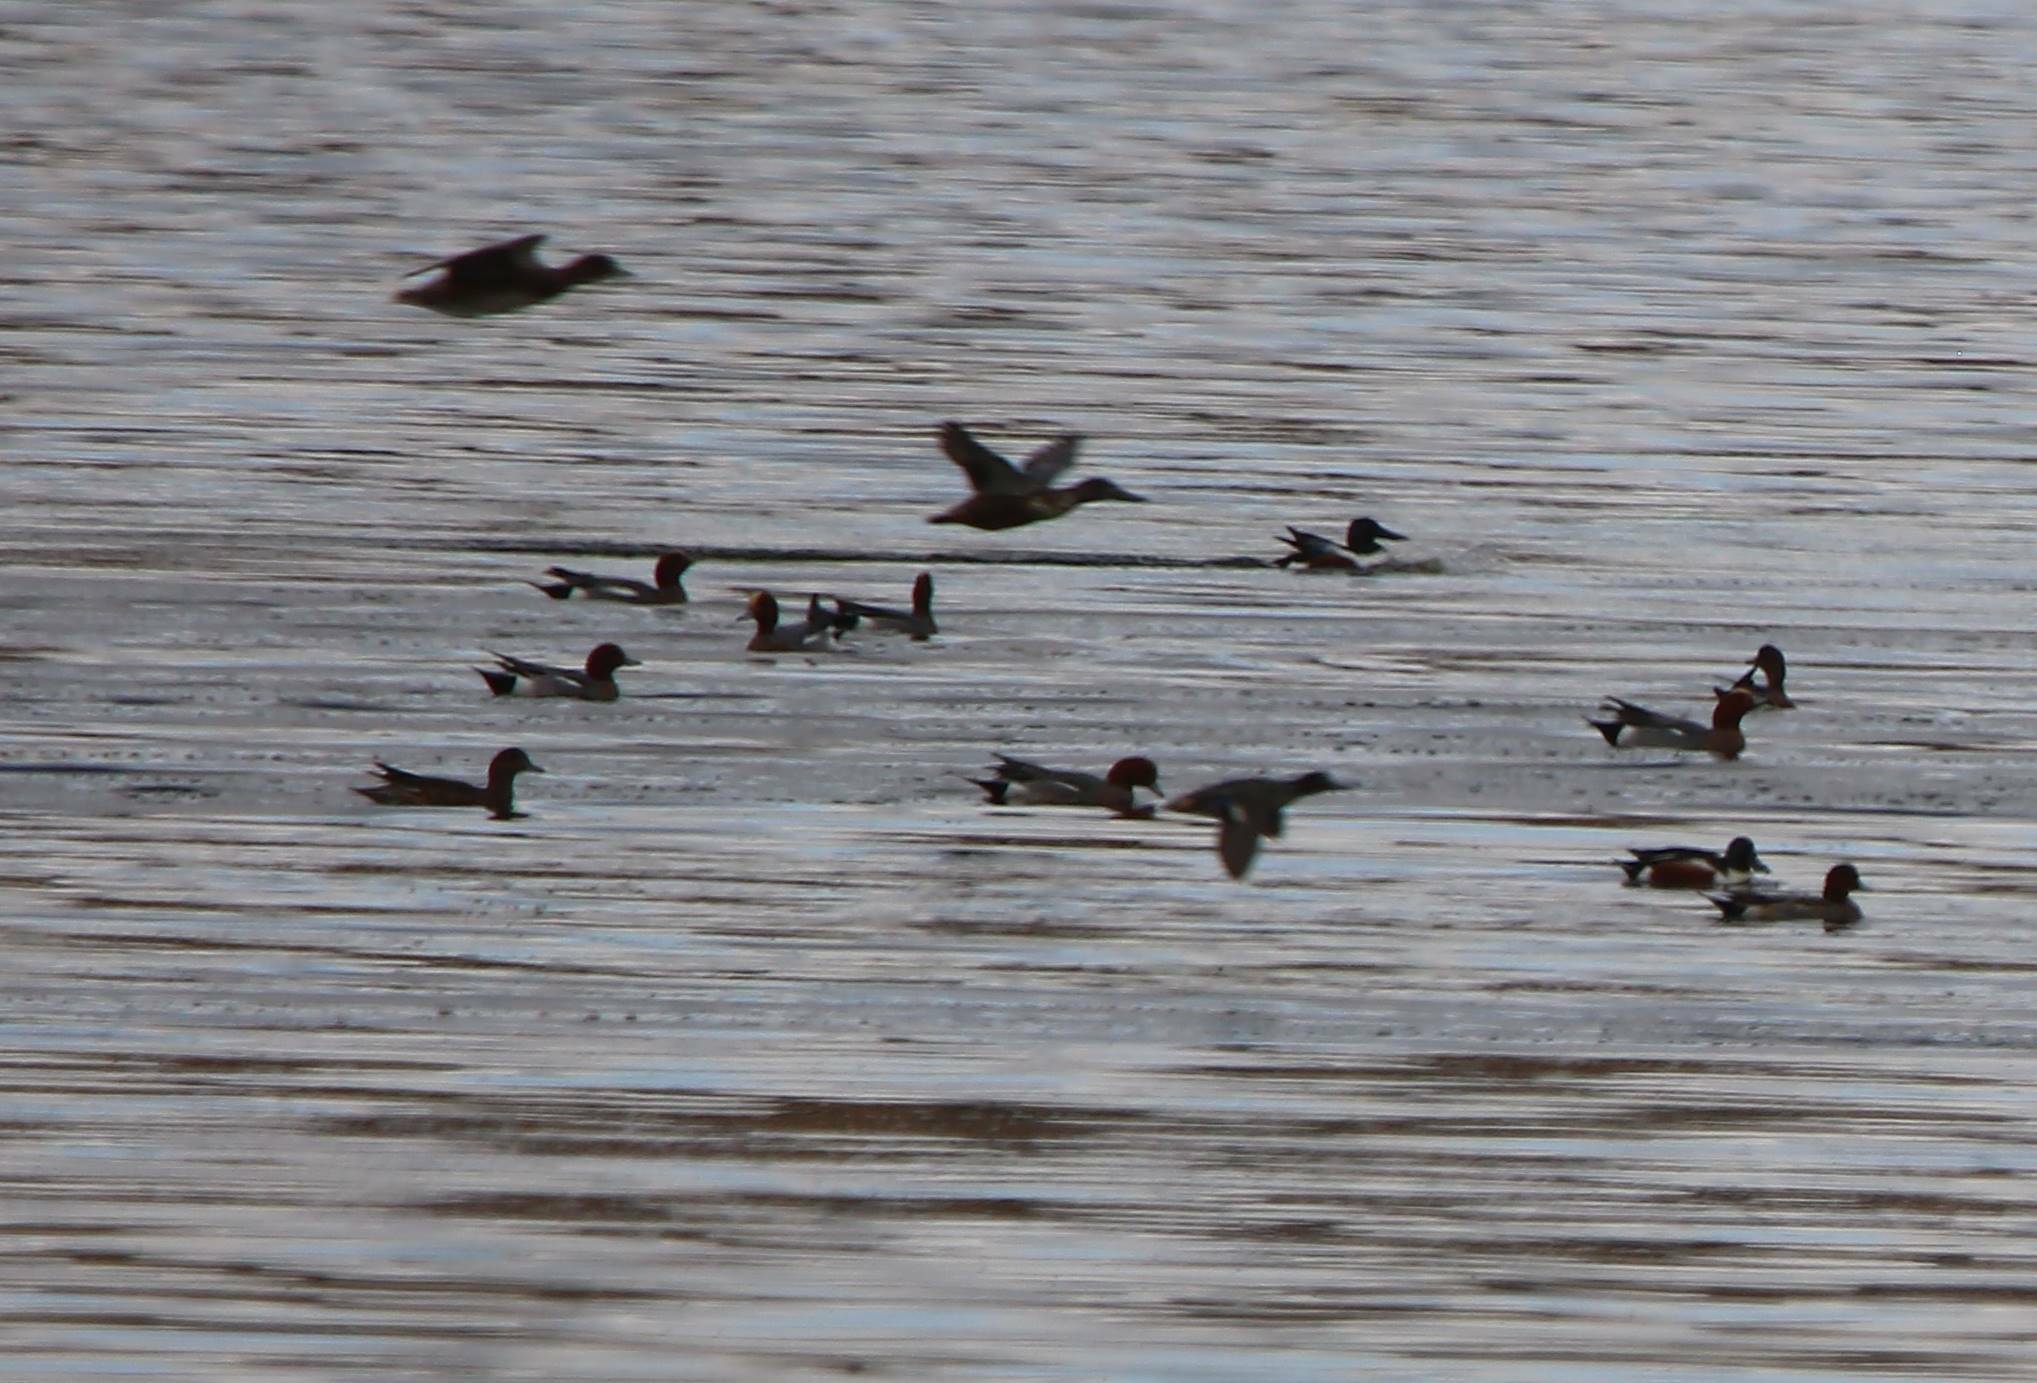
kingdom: Animalia
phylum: Chordata
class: Aves
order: Anseriformes
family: Anatidae
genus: Mareca
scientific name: Mareca penelope
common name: Eurasian wigeon
